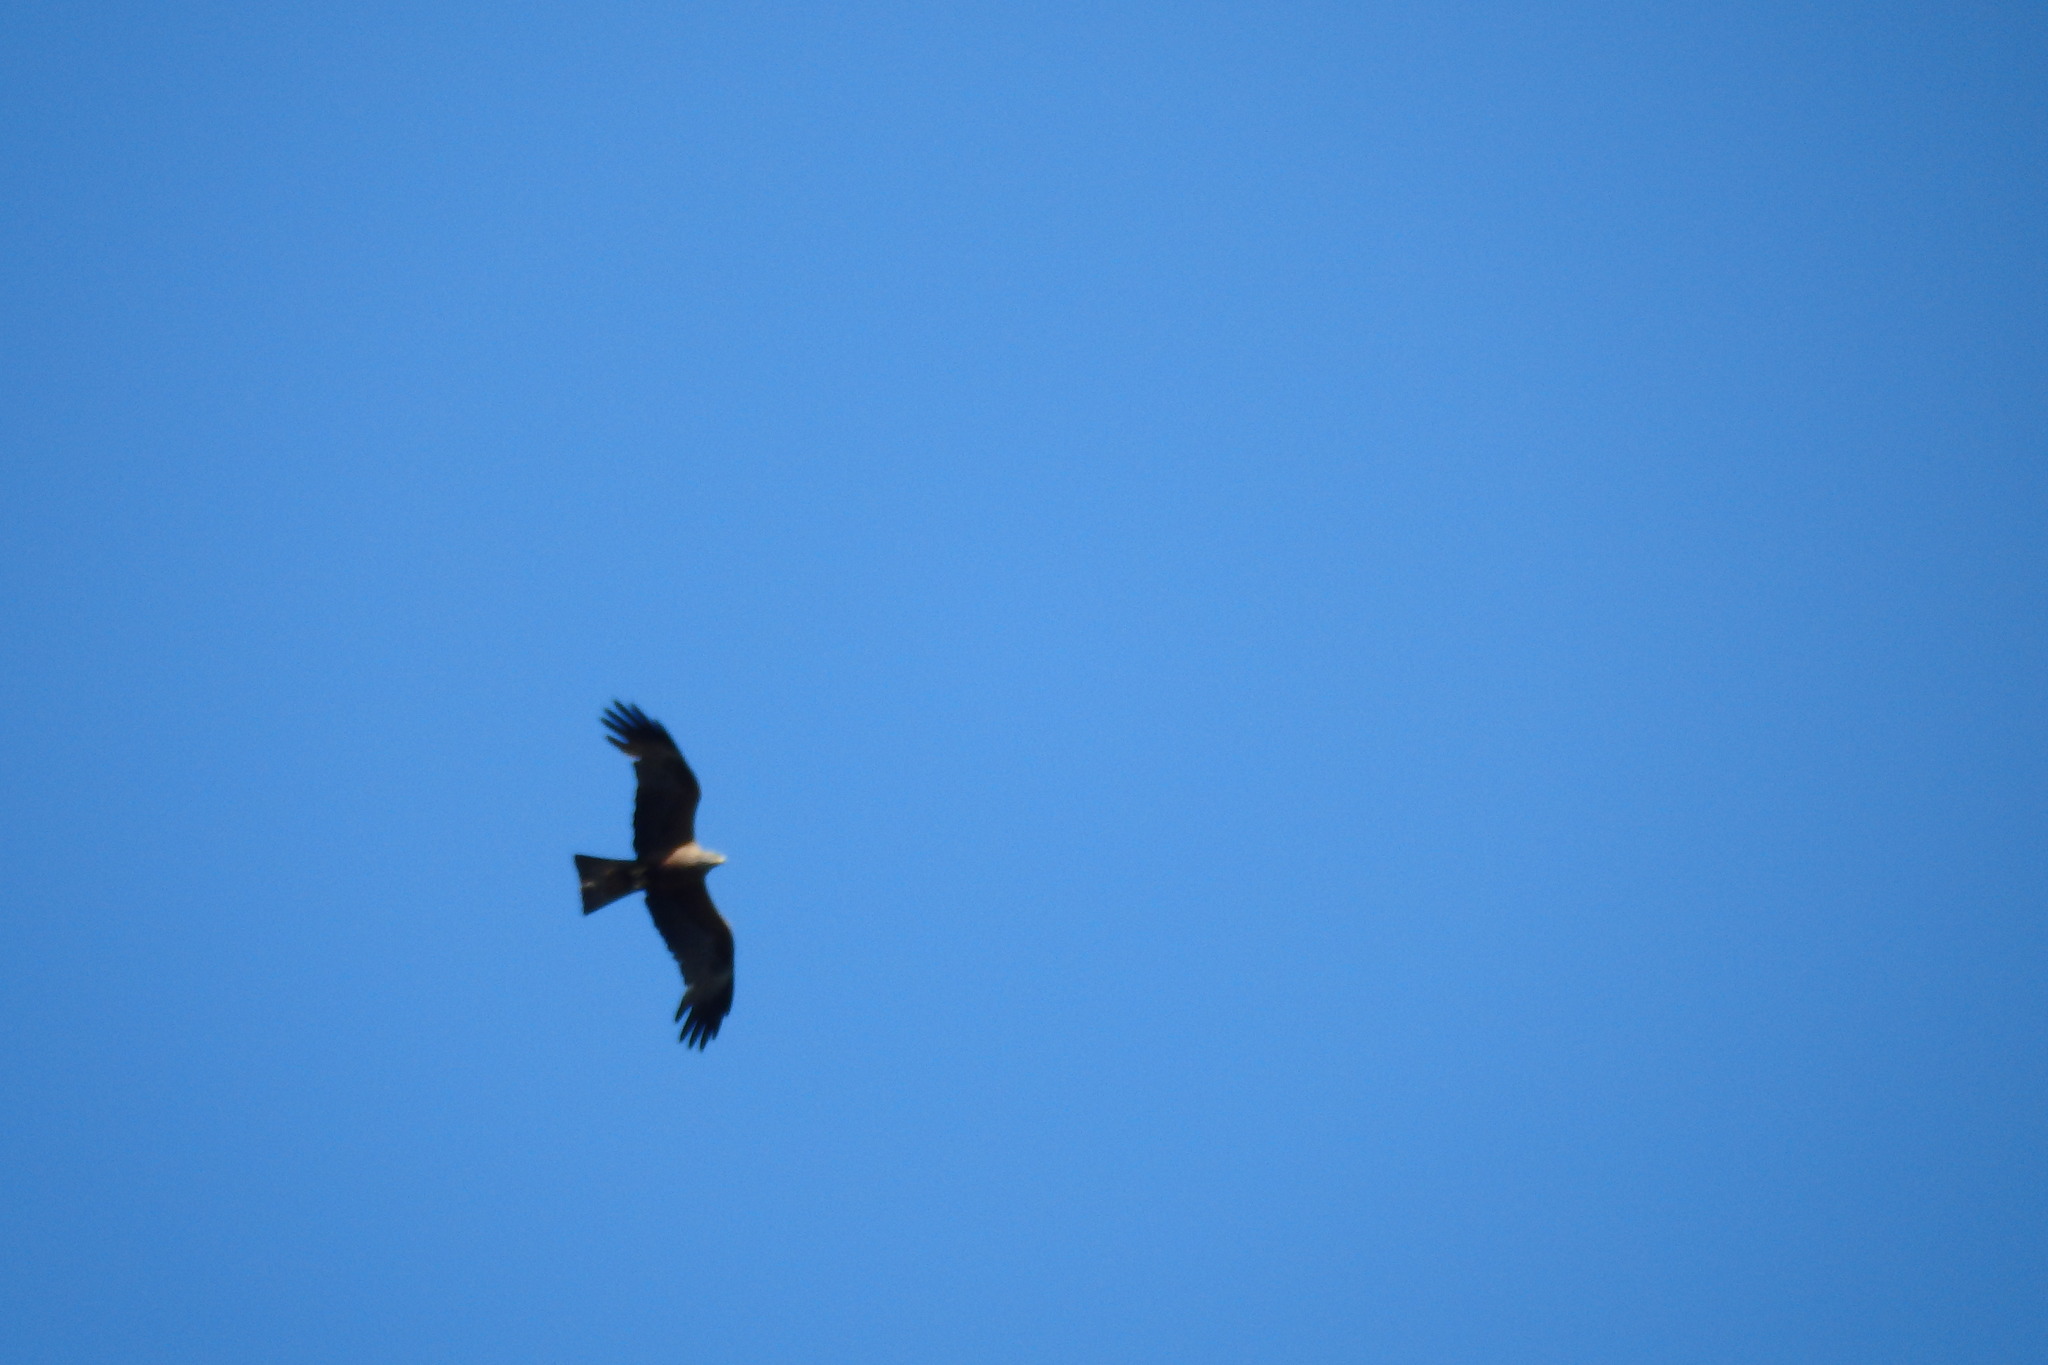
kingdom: Animalia
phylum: Chordata
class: Aves
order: Accipitriformes
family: Accipitridae
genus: Milvus
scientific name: Milvus
